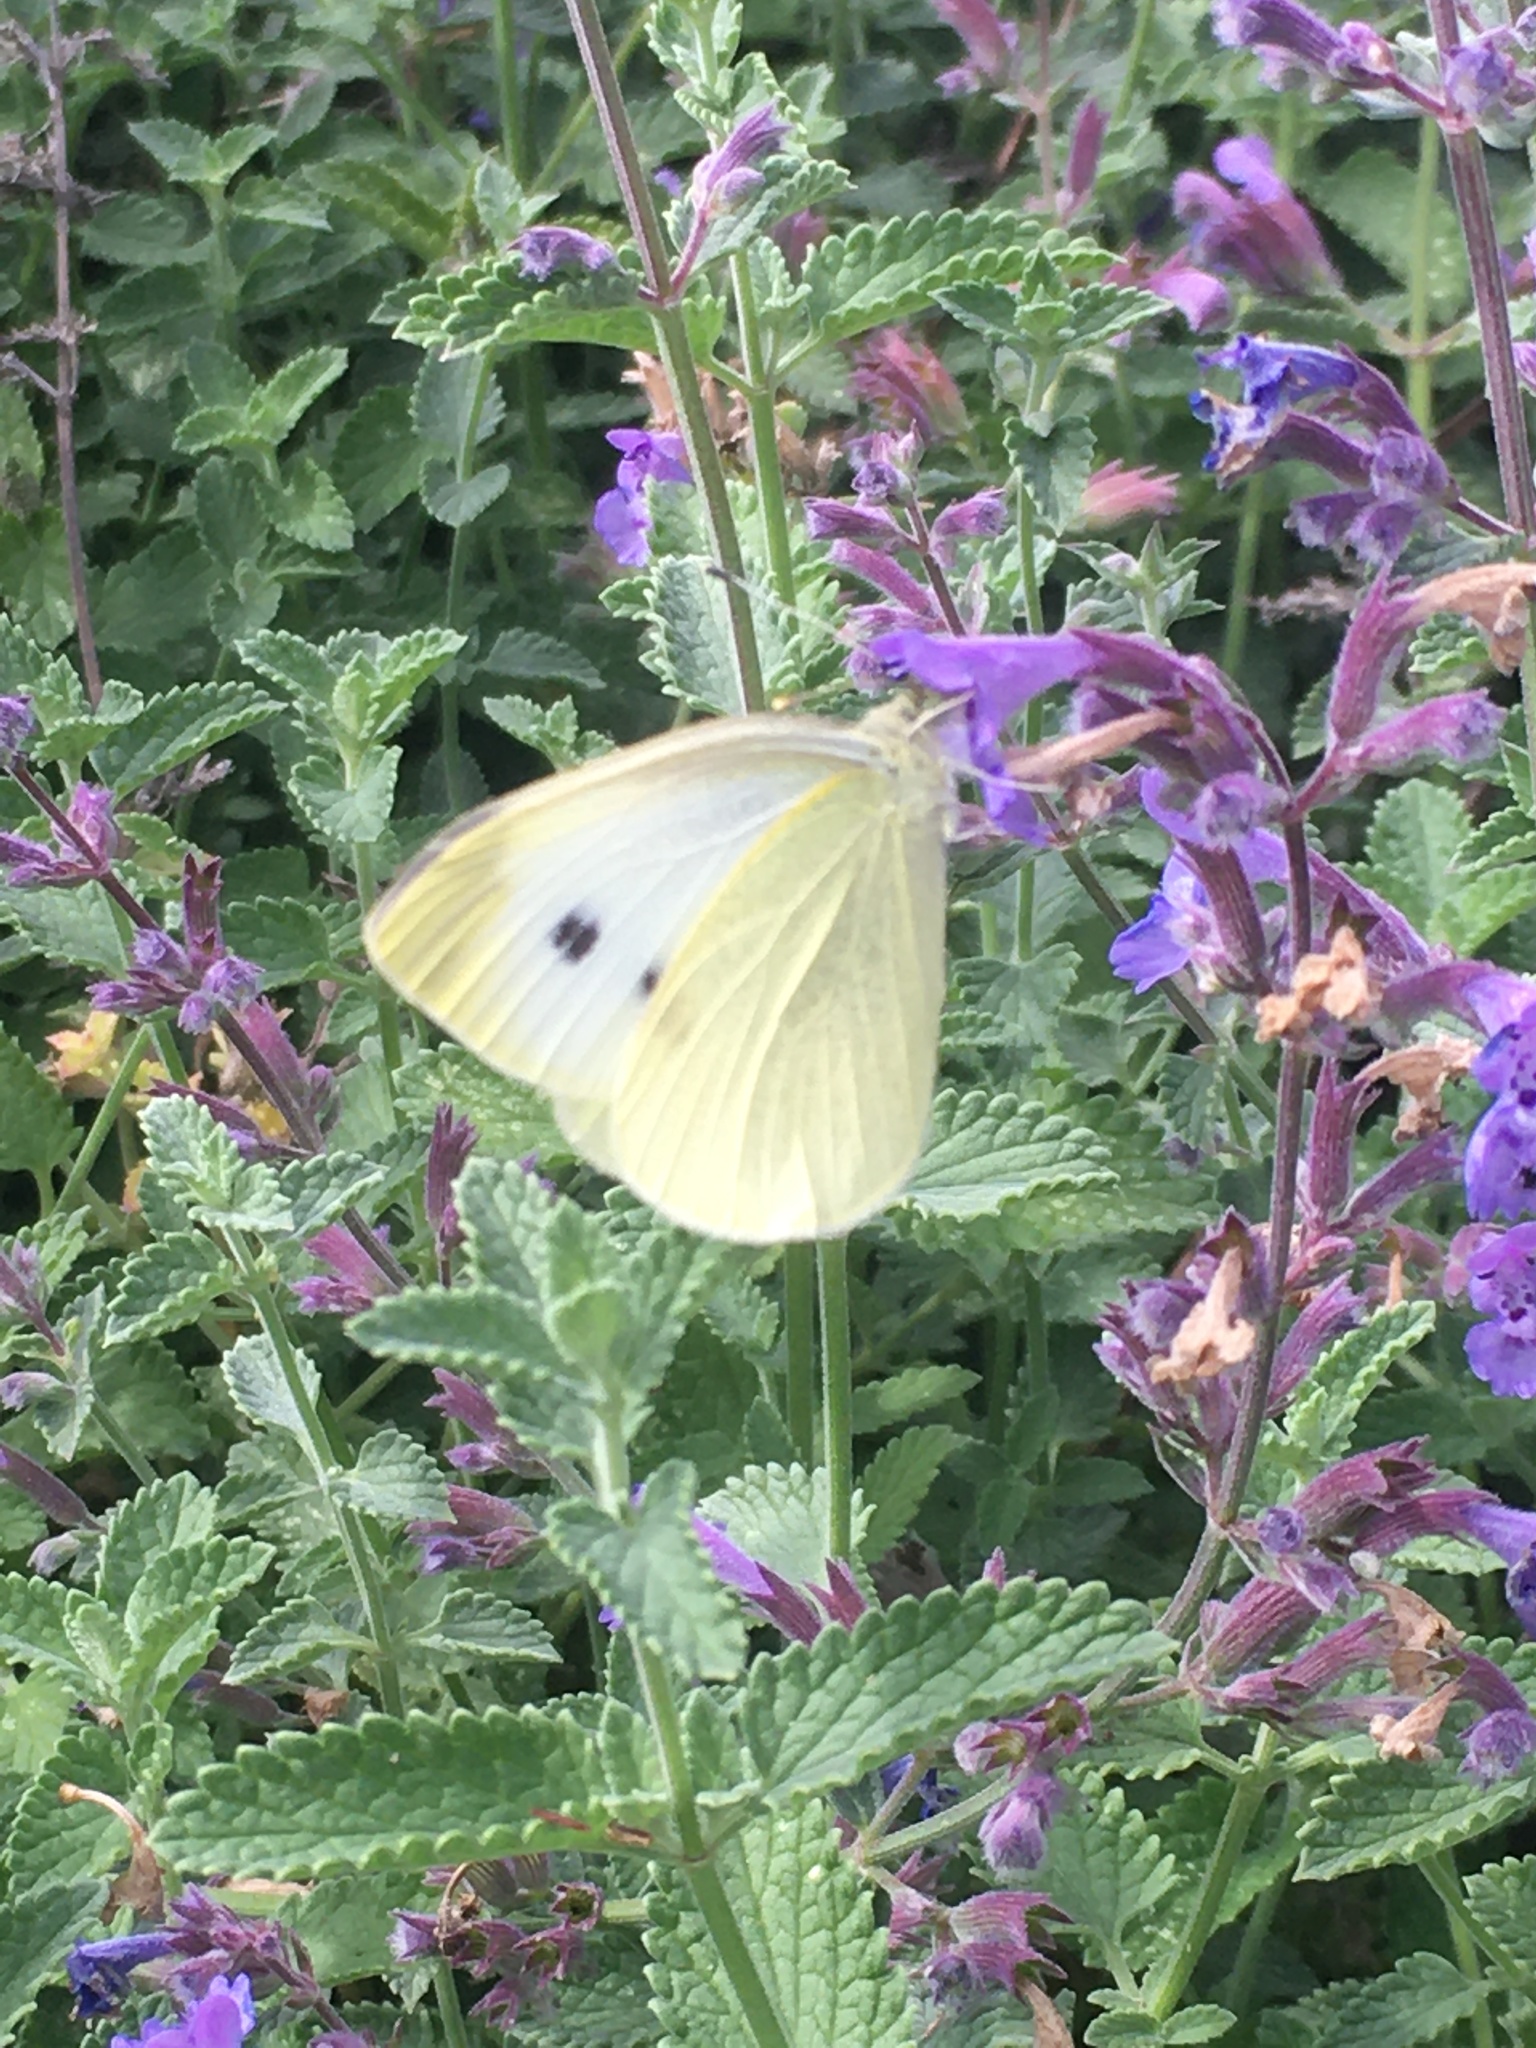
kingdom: Animalia
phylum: Arthropoda
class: Insecta
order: Lepidoptera
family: Pieridae
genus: Pieris
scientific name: Pieris rapae
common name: Small white
